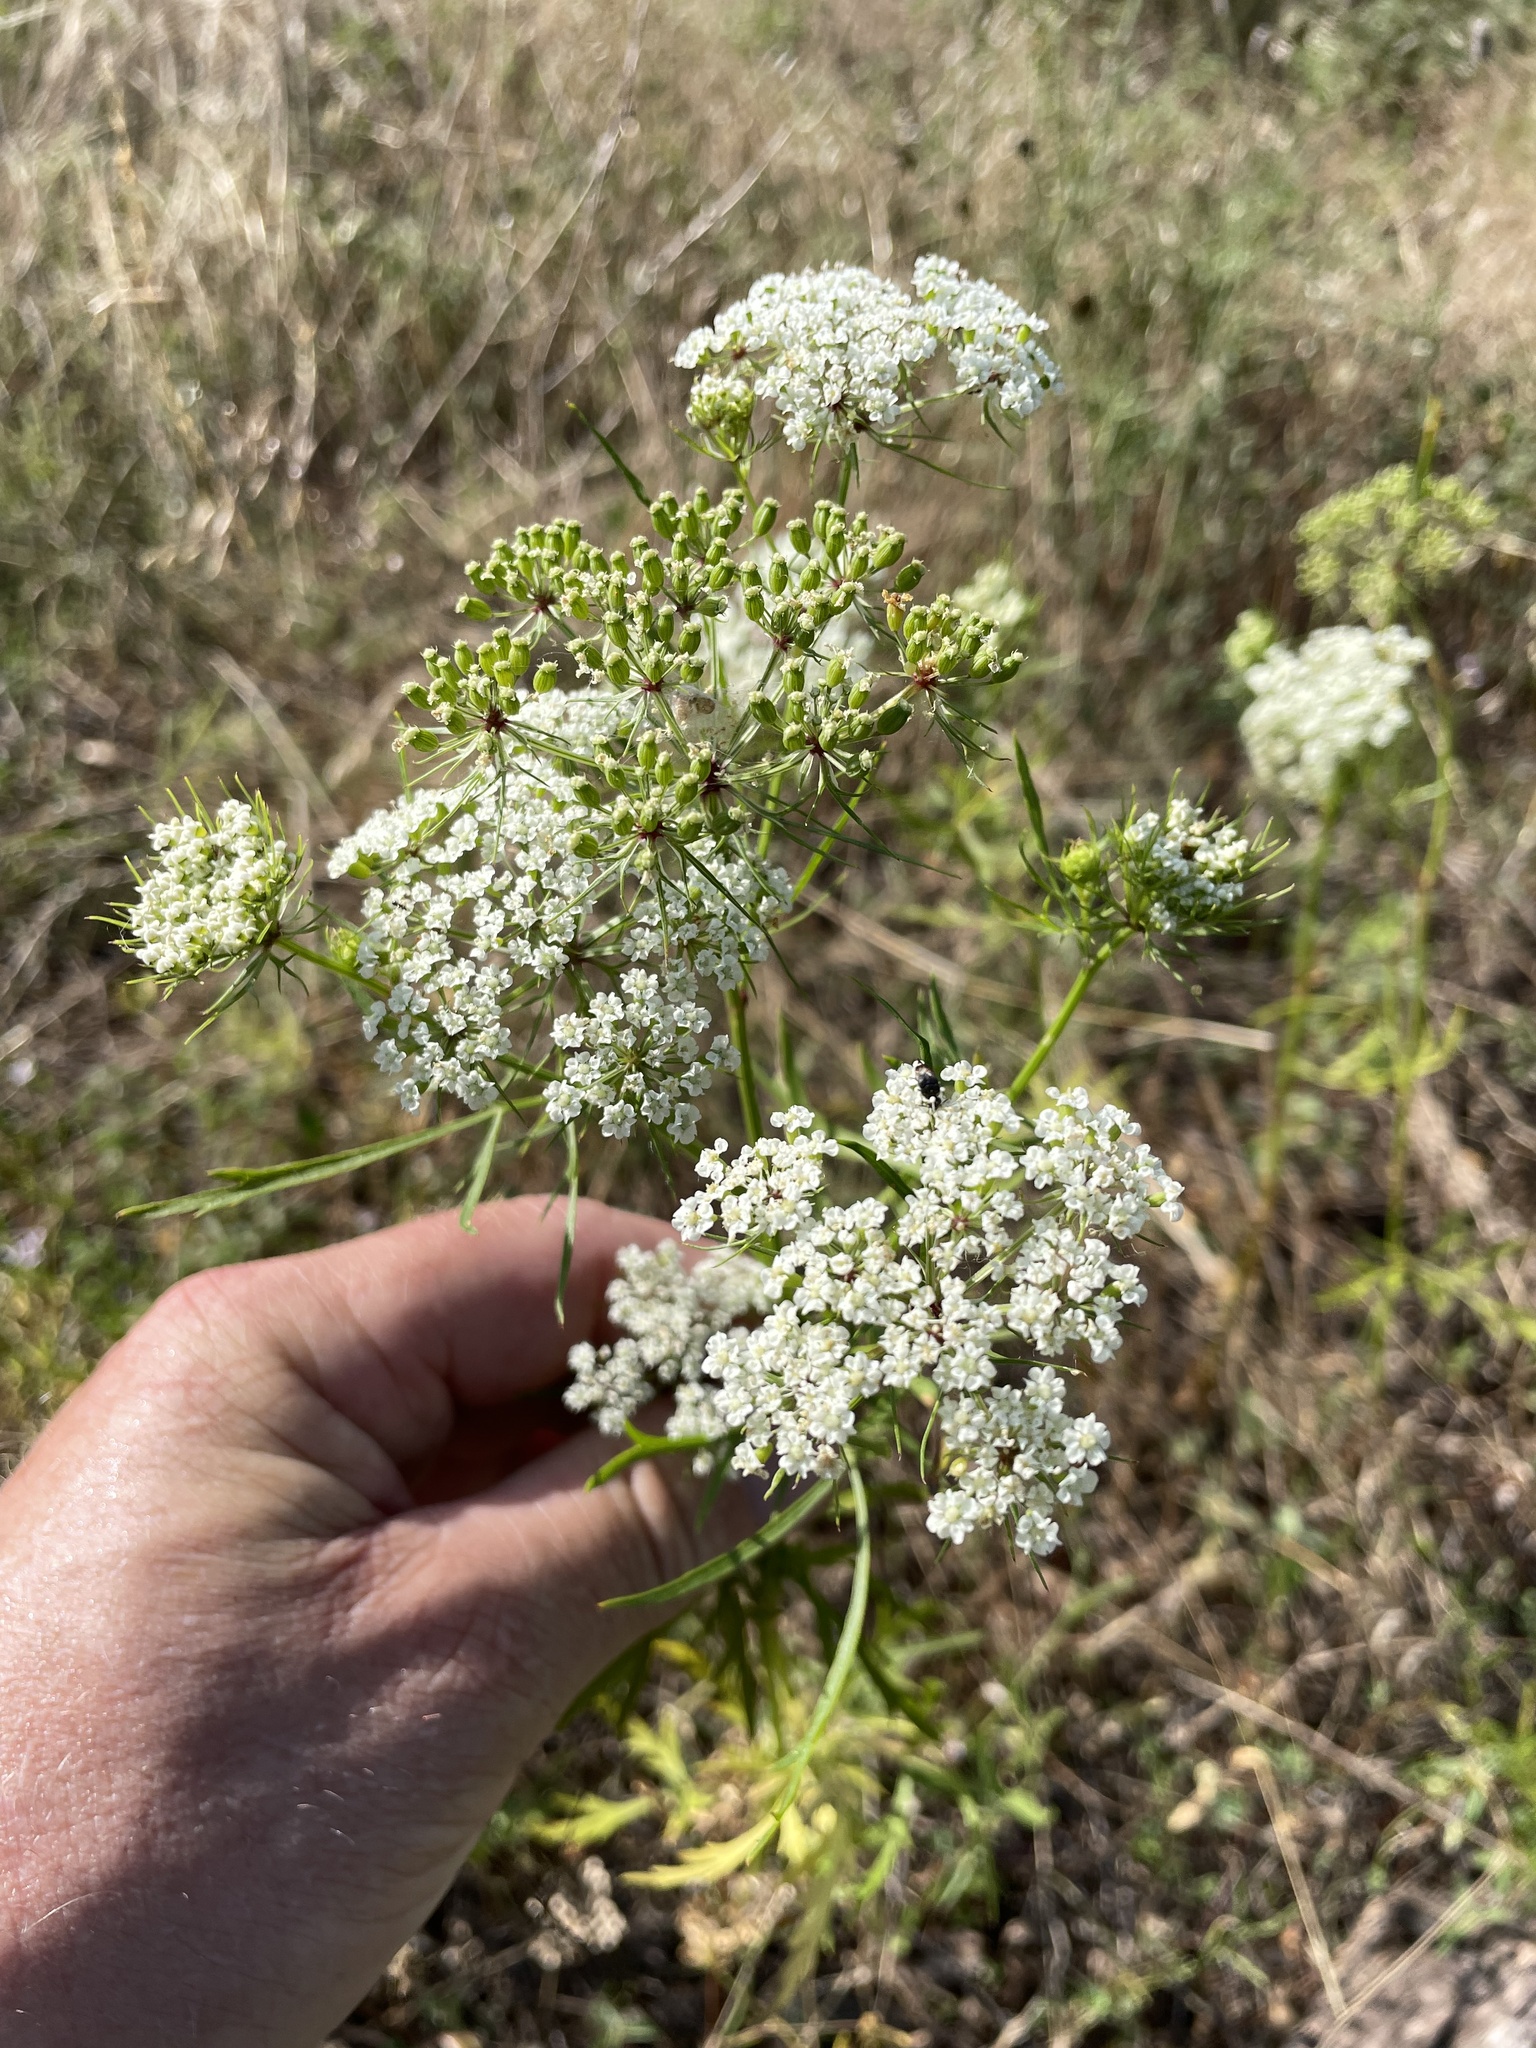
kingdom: Plantae
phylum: Tracheophyta
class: Magnoliopsida
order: Apiales
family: Apiaceae
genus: Daucosma
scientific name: Daucosma laciniatum
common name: Meadow-parasol
